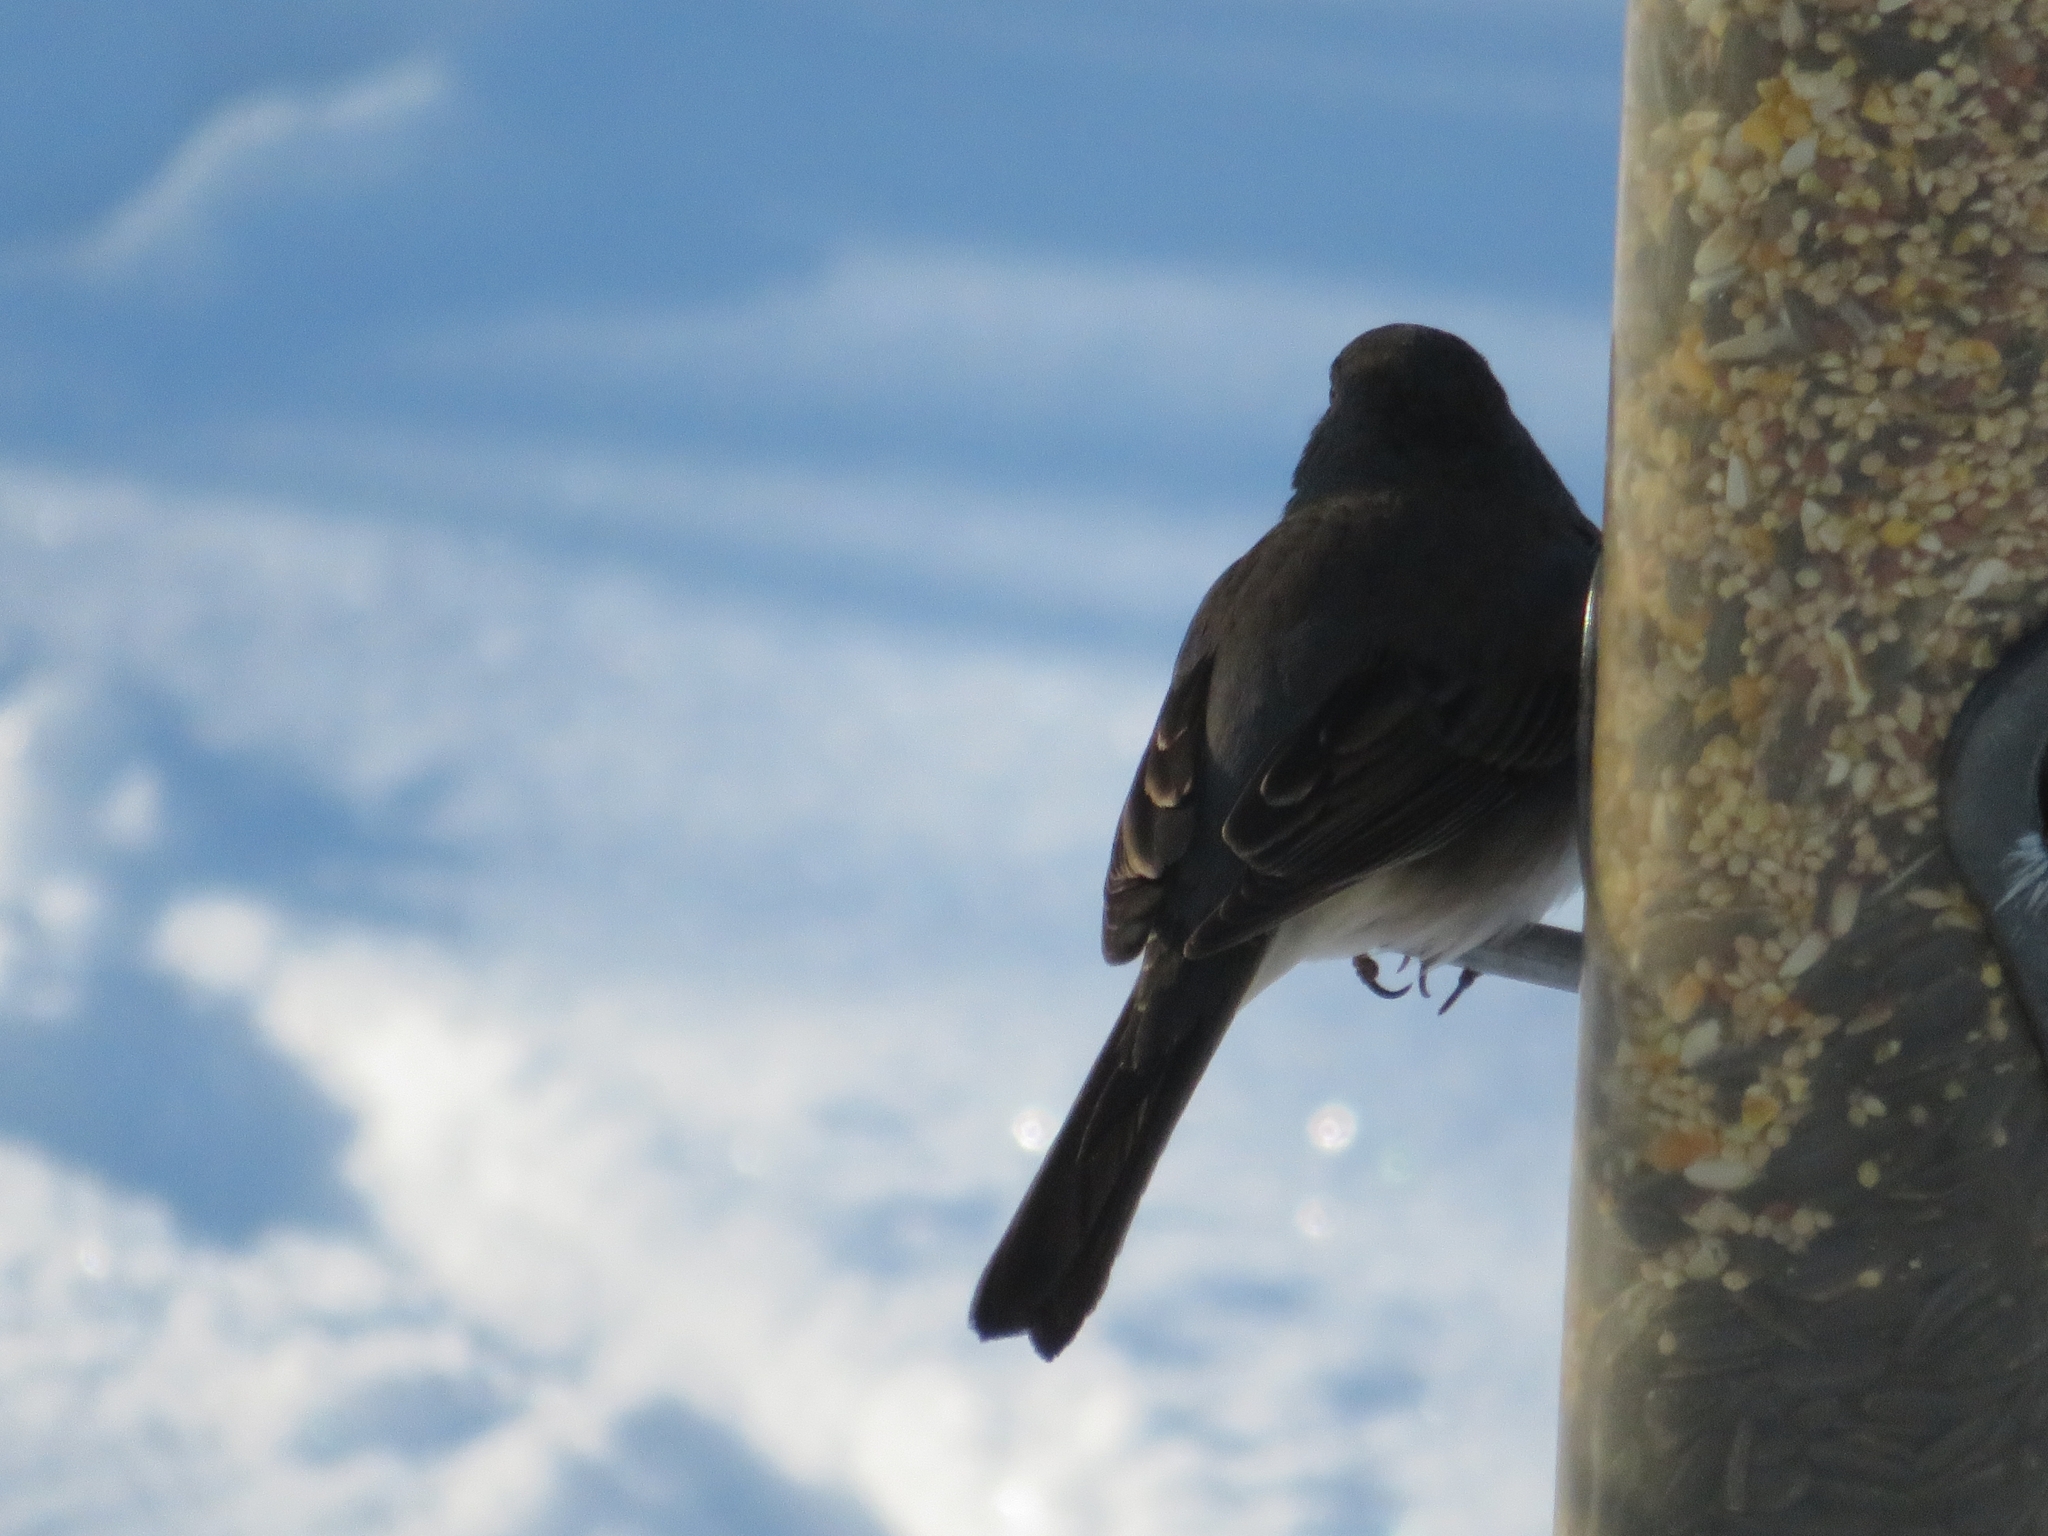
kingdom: Animalia
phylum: Chordata
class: Aves
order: Passeriformes
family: Passerellidae
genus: Junco
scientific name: Junco hyemalis
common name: Dark-eyed junco
